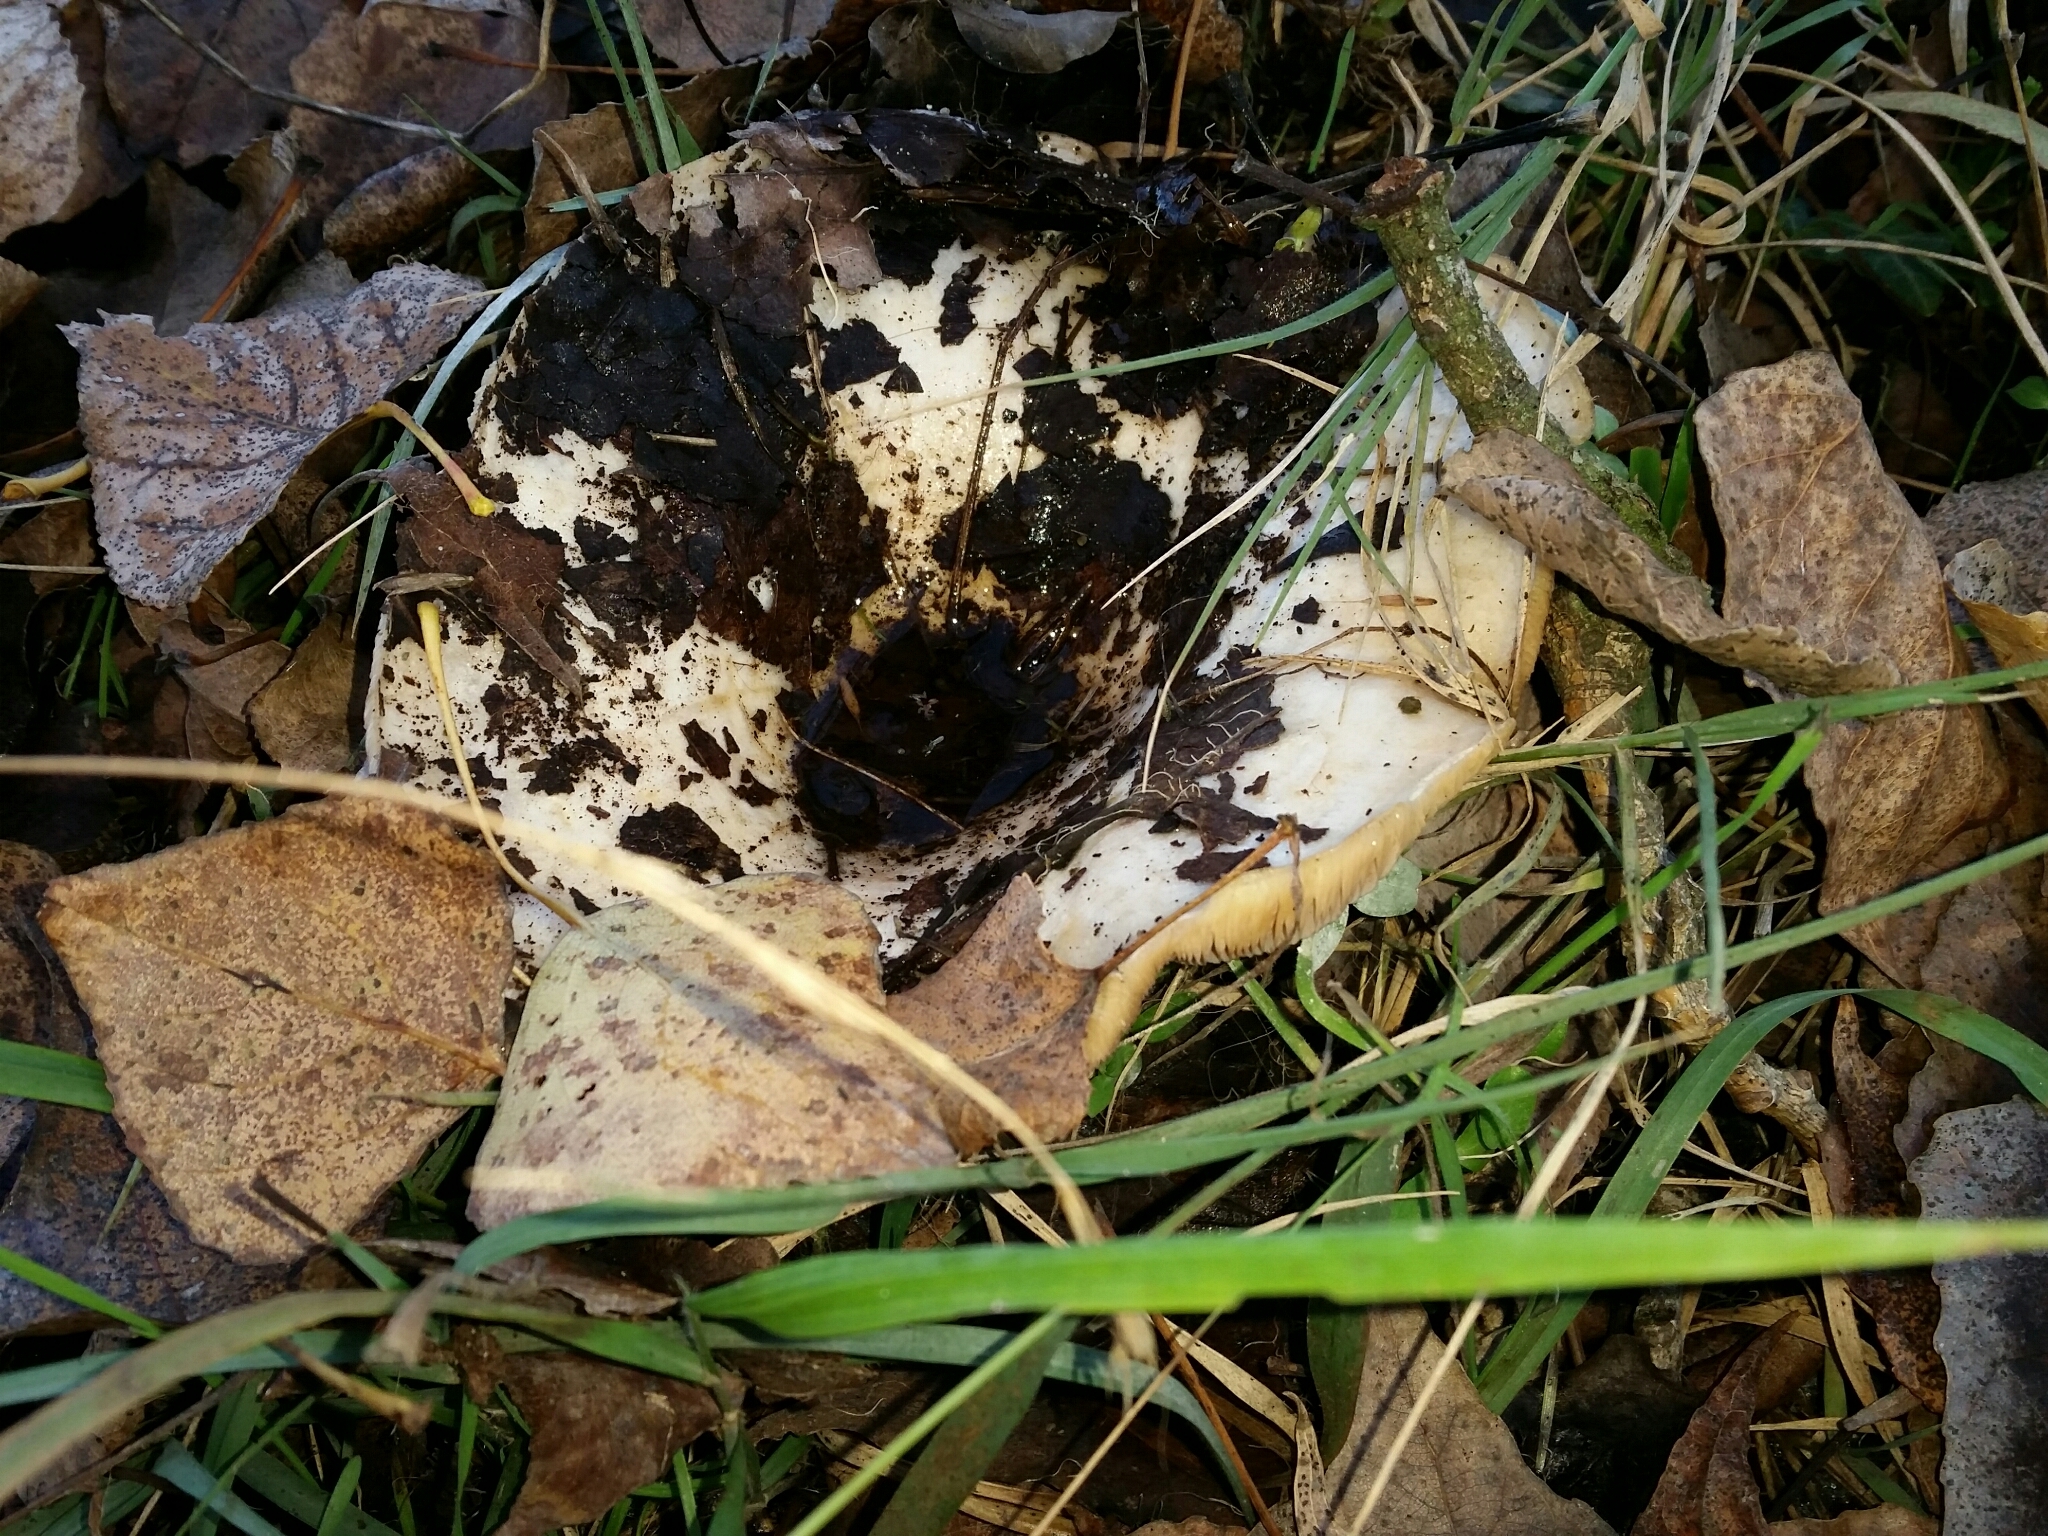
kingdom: Fungi
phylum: Basidiomycota
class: Agaricomycetes
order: Russulales
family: Russulaceae
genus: Lactarius
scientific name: Lactarius controversus
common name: Blushing milkcap
